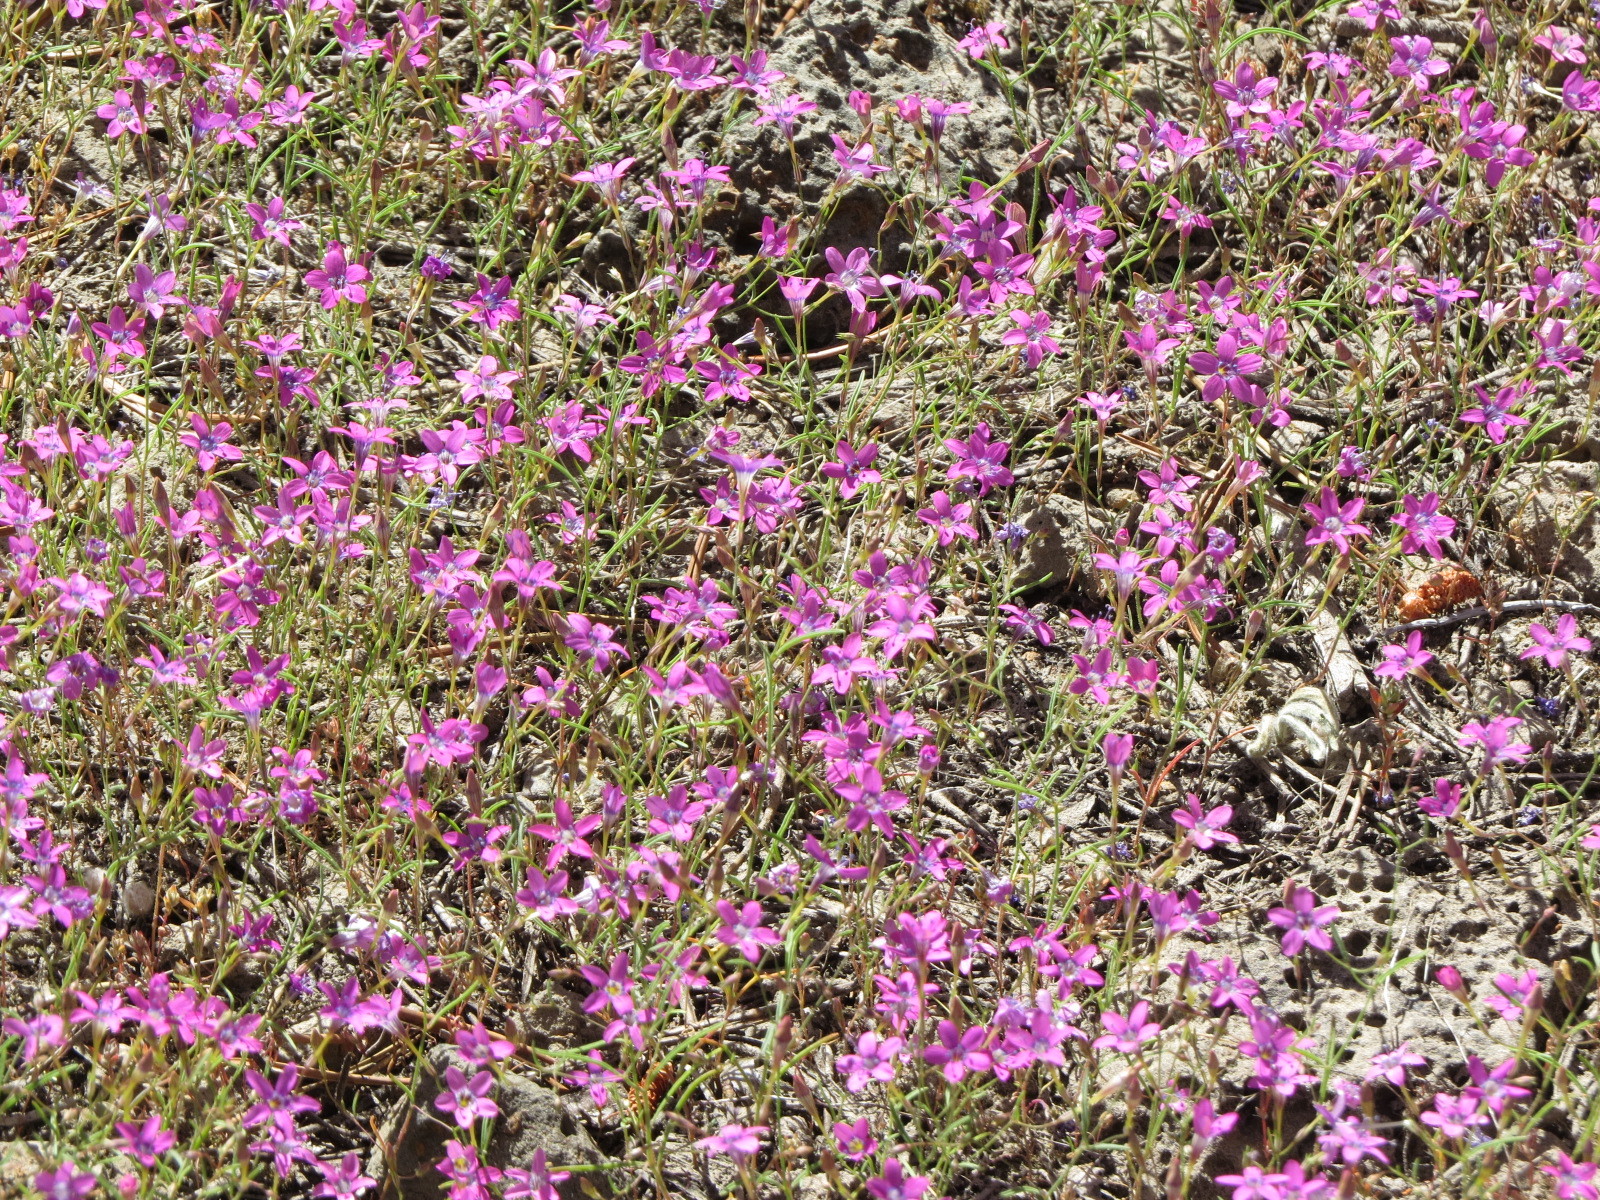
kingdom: Plantae
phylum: Tracheophyta
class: Magnoliopsida
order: Ericales
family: Polemoniaceae
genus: Navarretia
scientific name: Navarretia leptalea
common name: Bridges' pincushionplant
